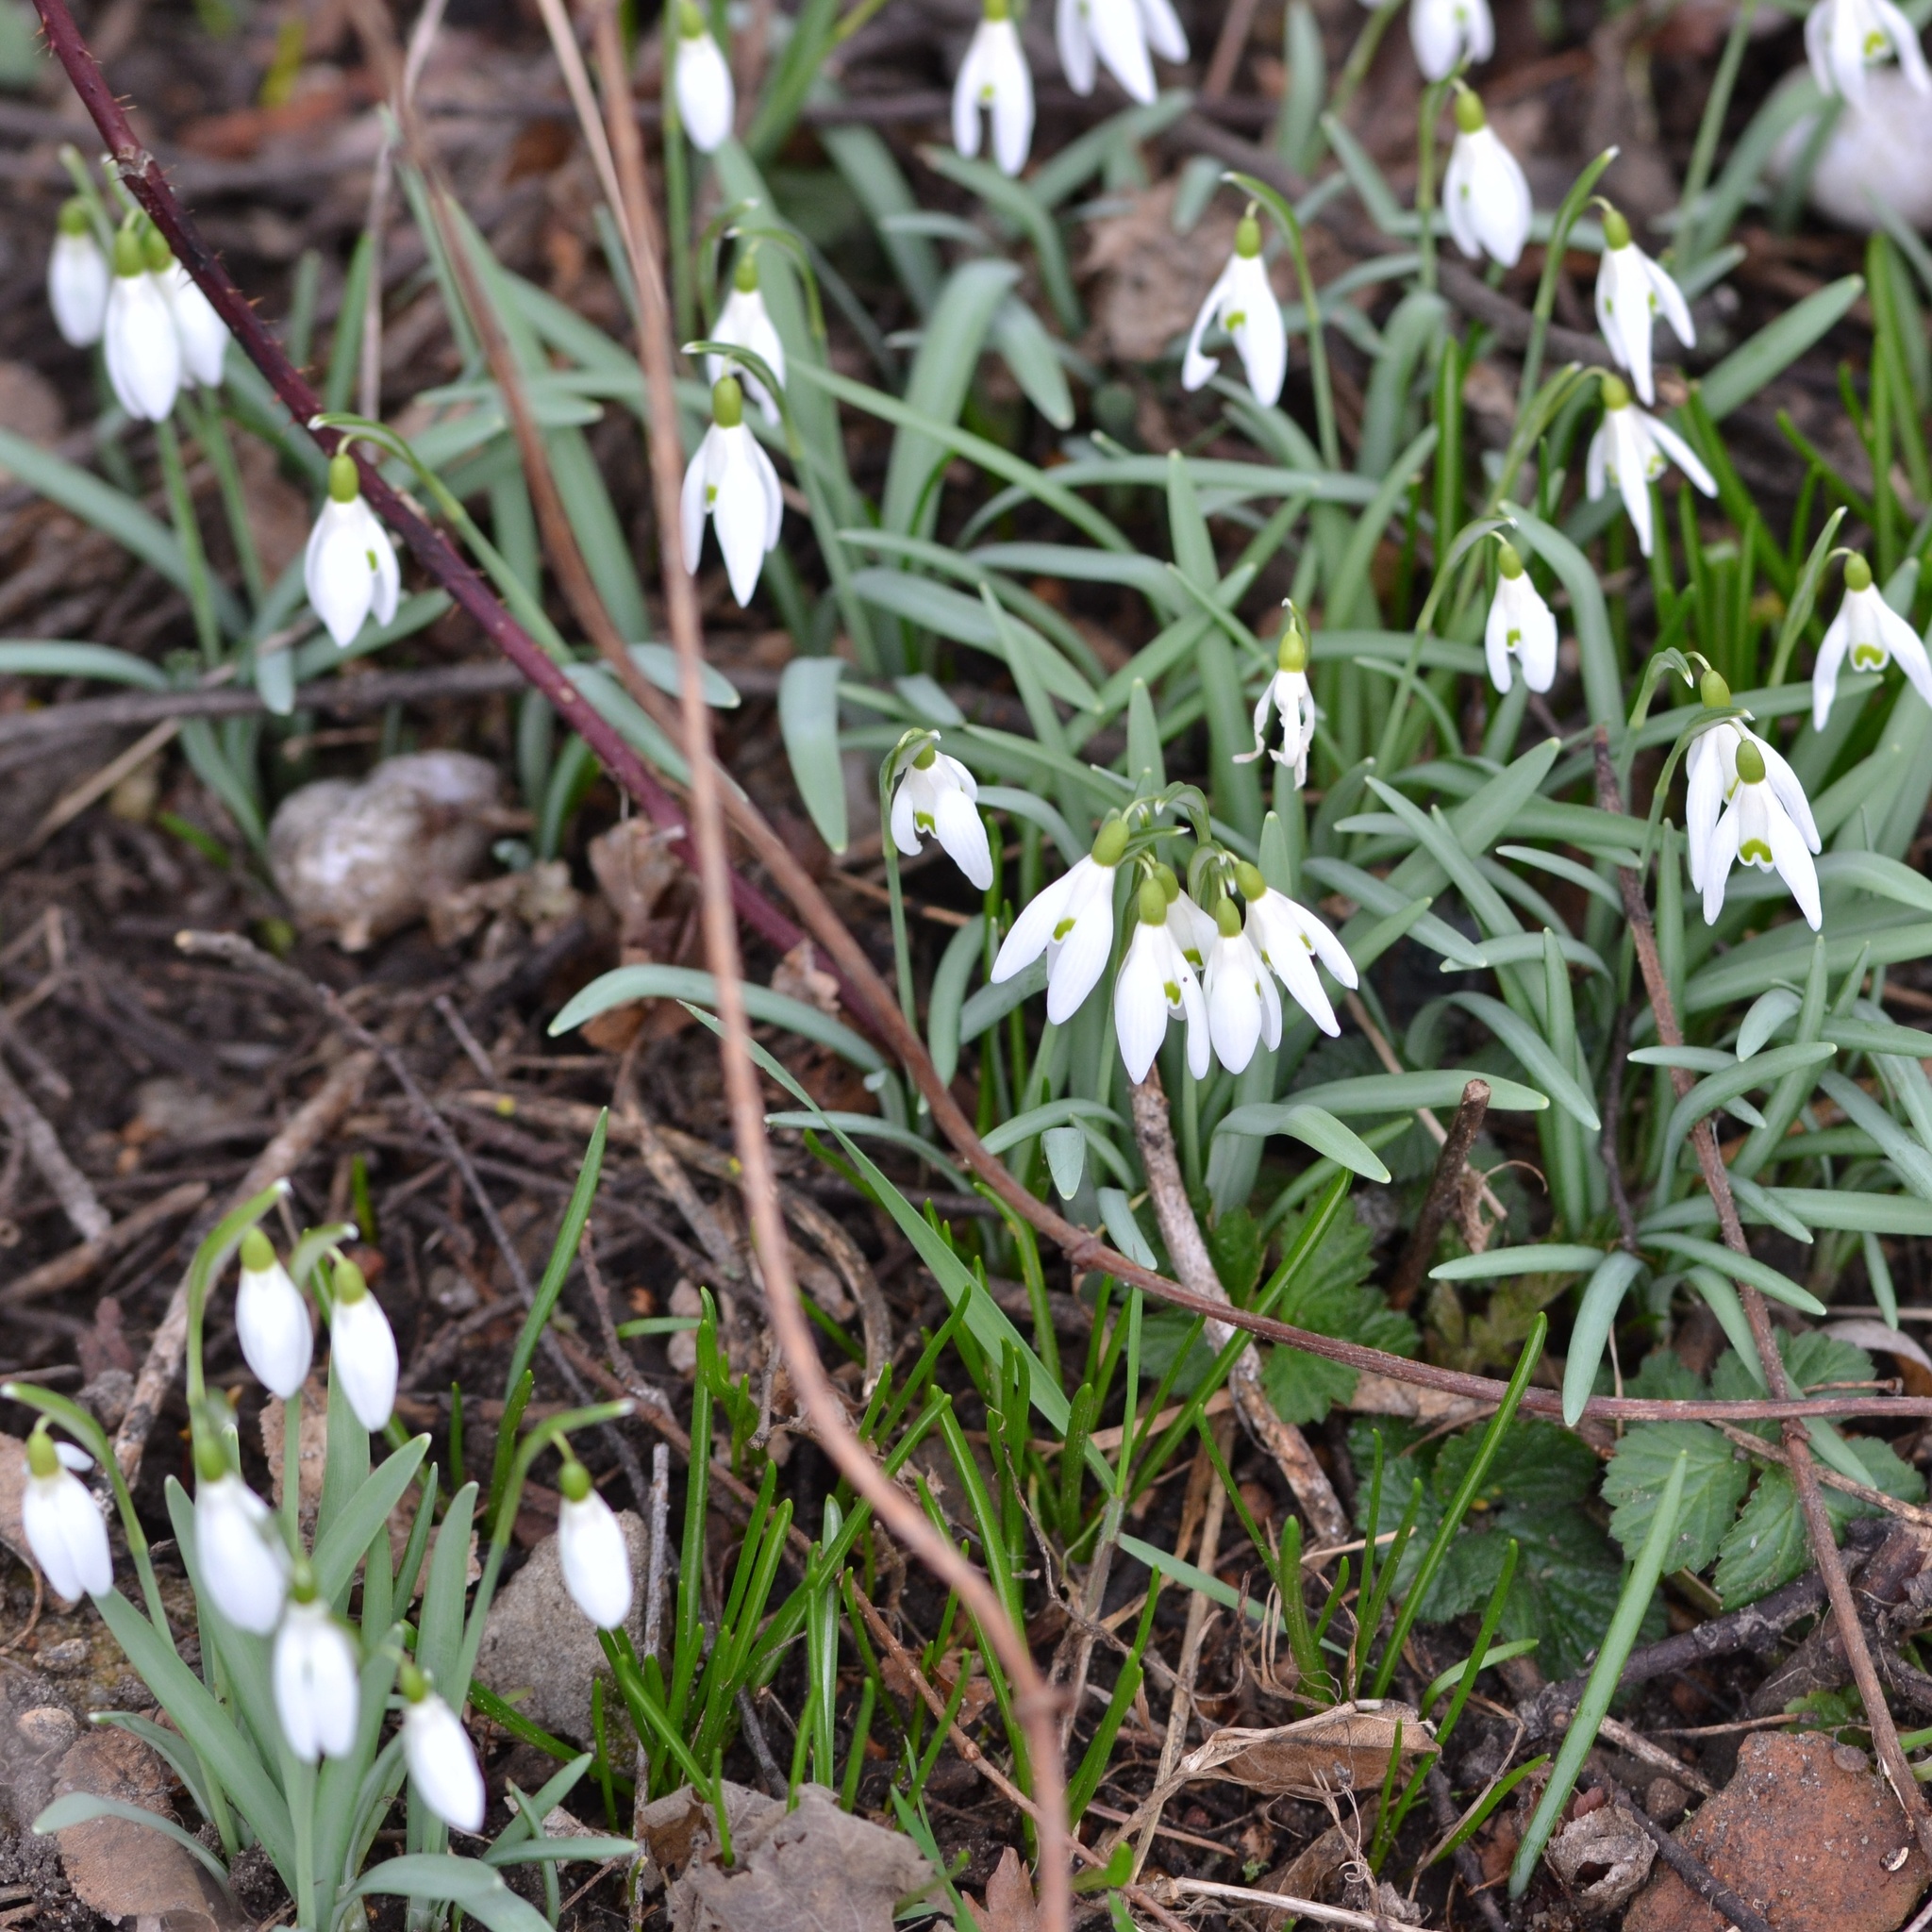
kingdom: Plantae
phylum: Tracheophyta
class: Liliopsida
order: Asparagales
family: Amaryllidaceae
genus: Galanthus
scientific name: Galanthus nivalis
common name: Snowdrop
